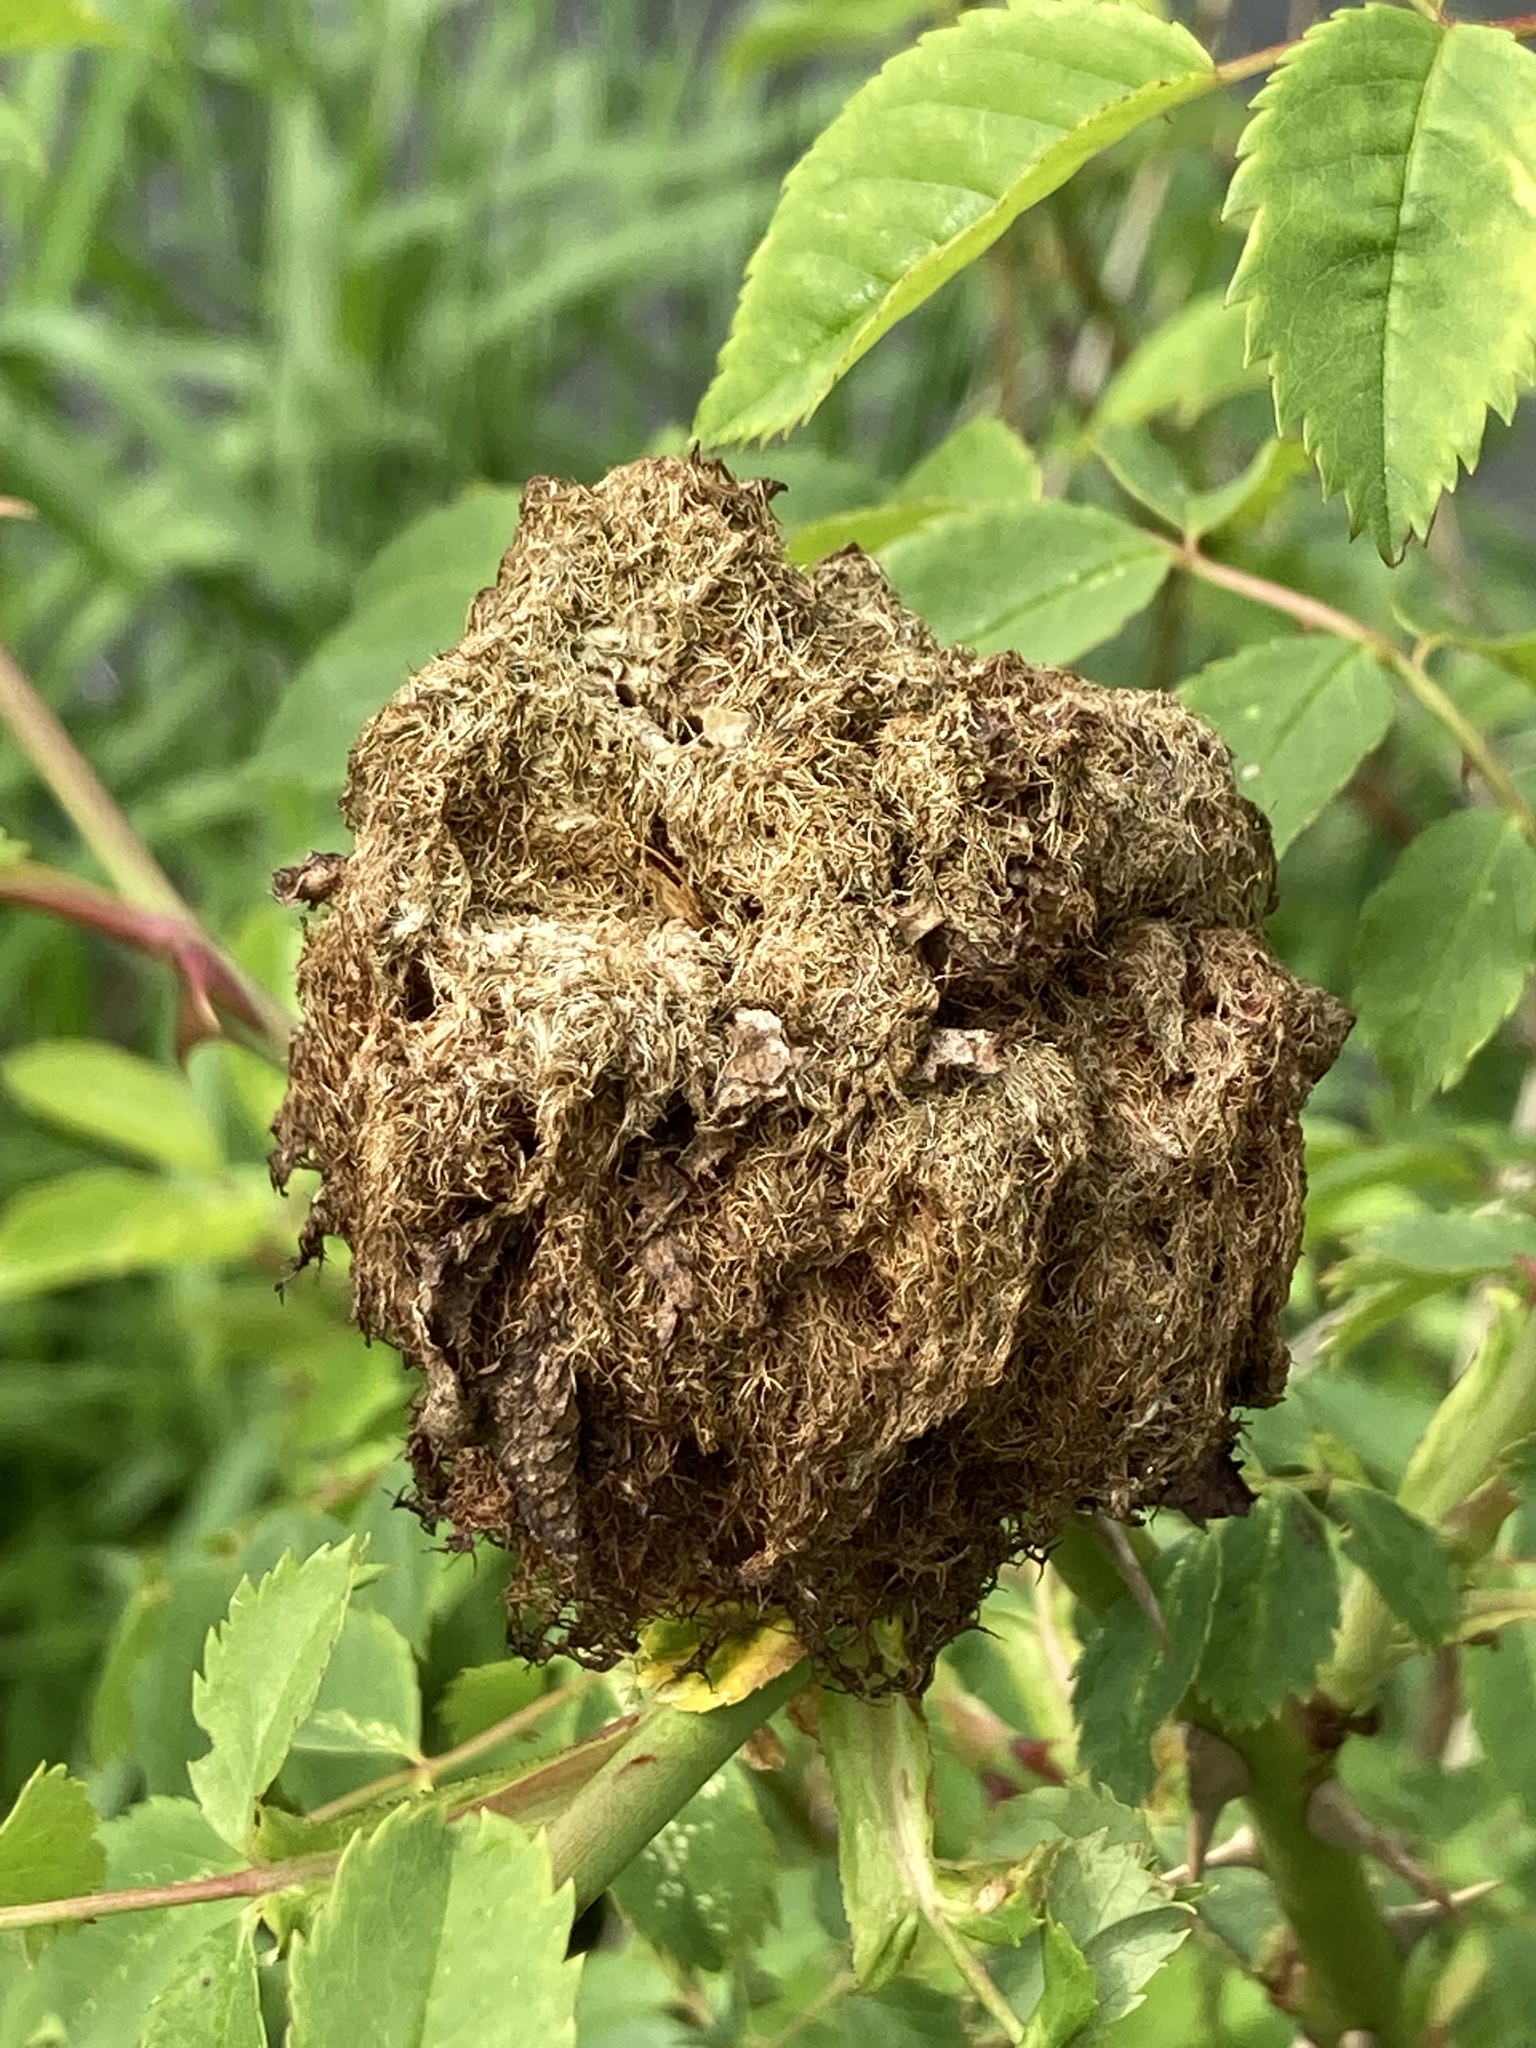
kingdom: Animalia
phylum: Arthropoda
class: Insecta
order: Hymenoptera
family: Cynipidae
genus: Diplolepis
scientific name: Diplolepis rosae
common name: Bedeguar gall
